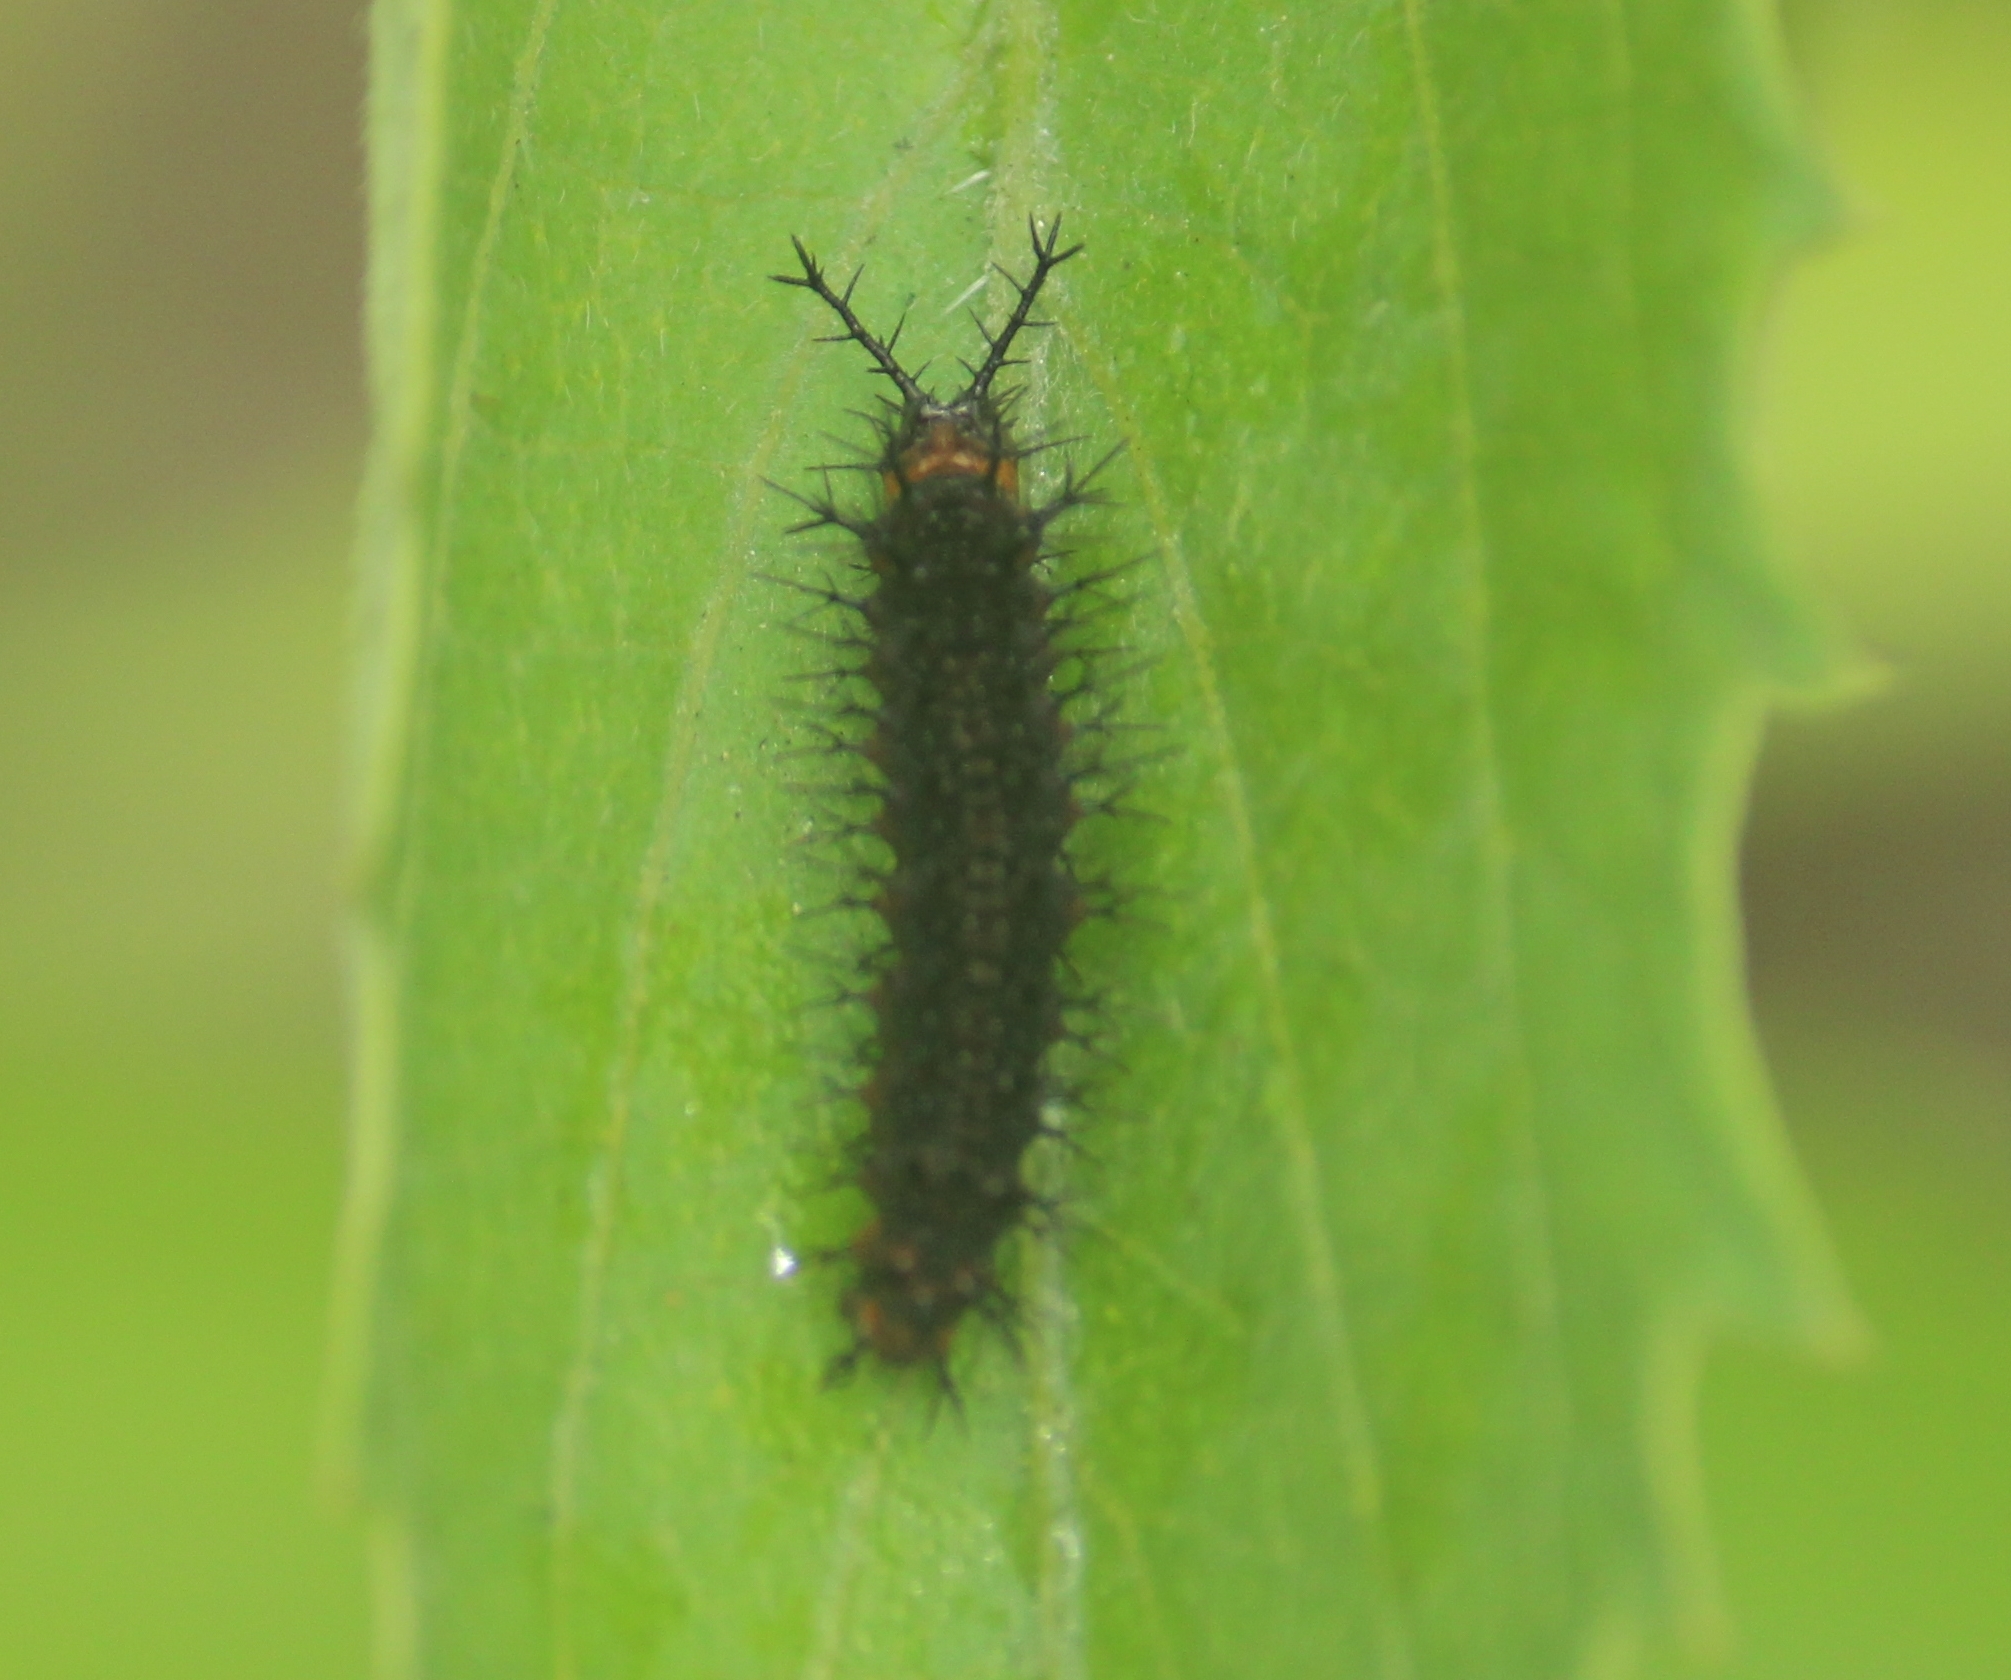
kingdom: Animalia
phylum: Arthropoda
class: Insecta
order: Lepidoptera
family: Nymphalidae
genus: Ariadne
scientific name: Ariadne ariadne
